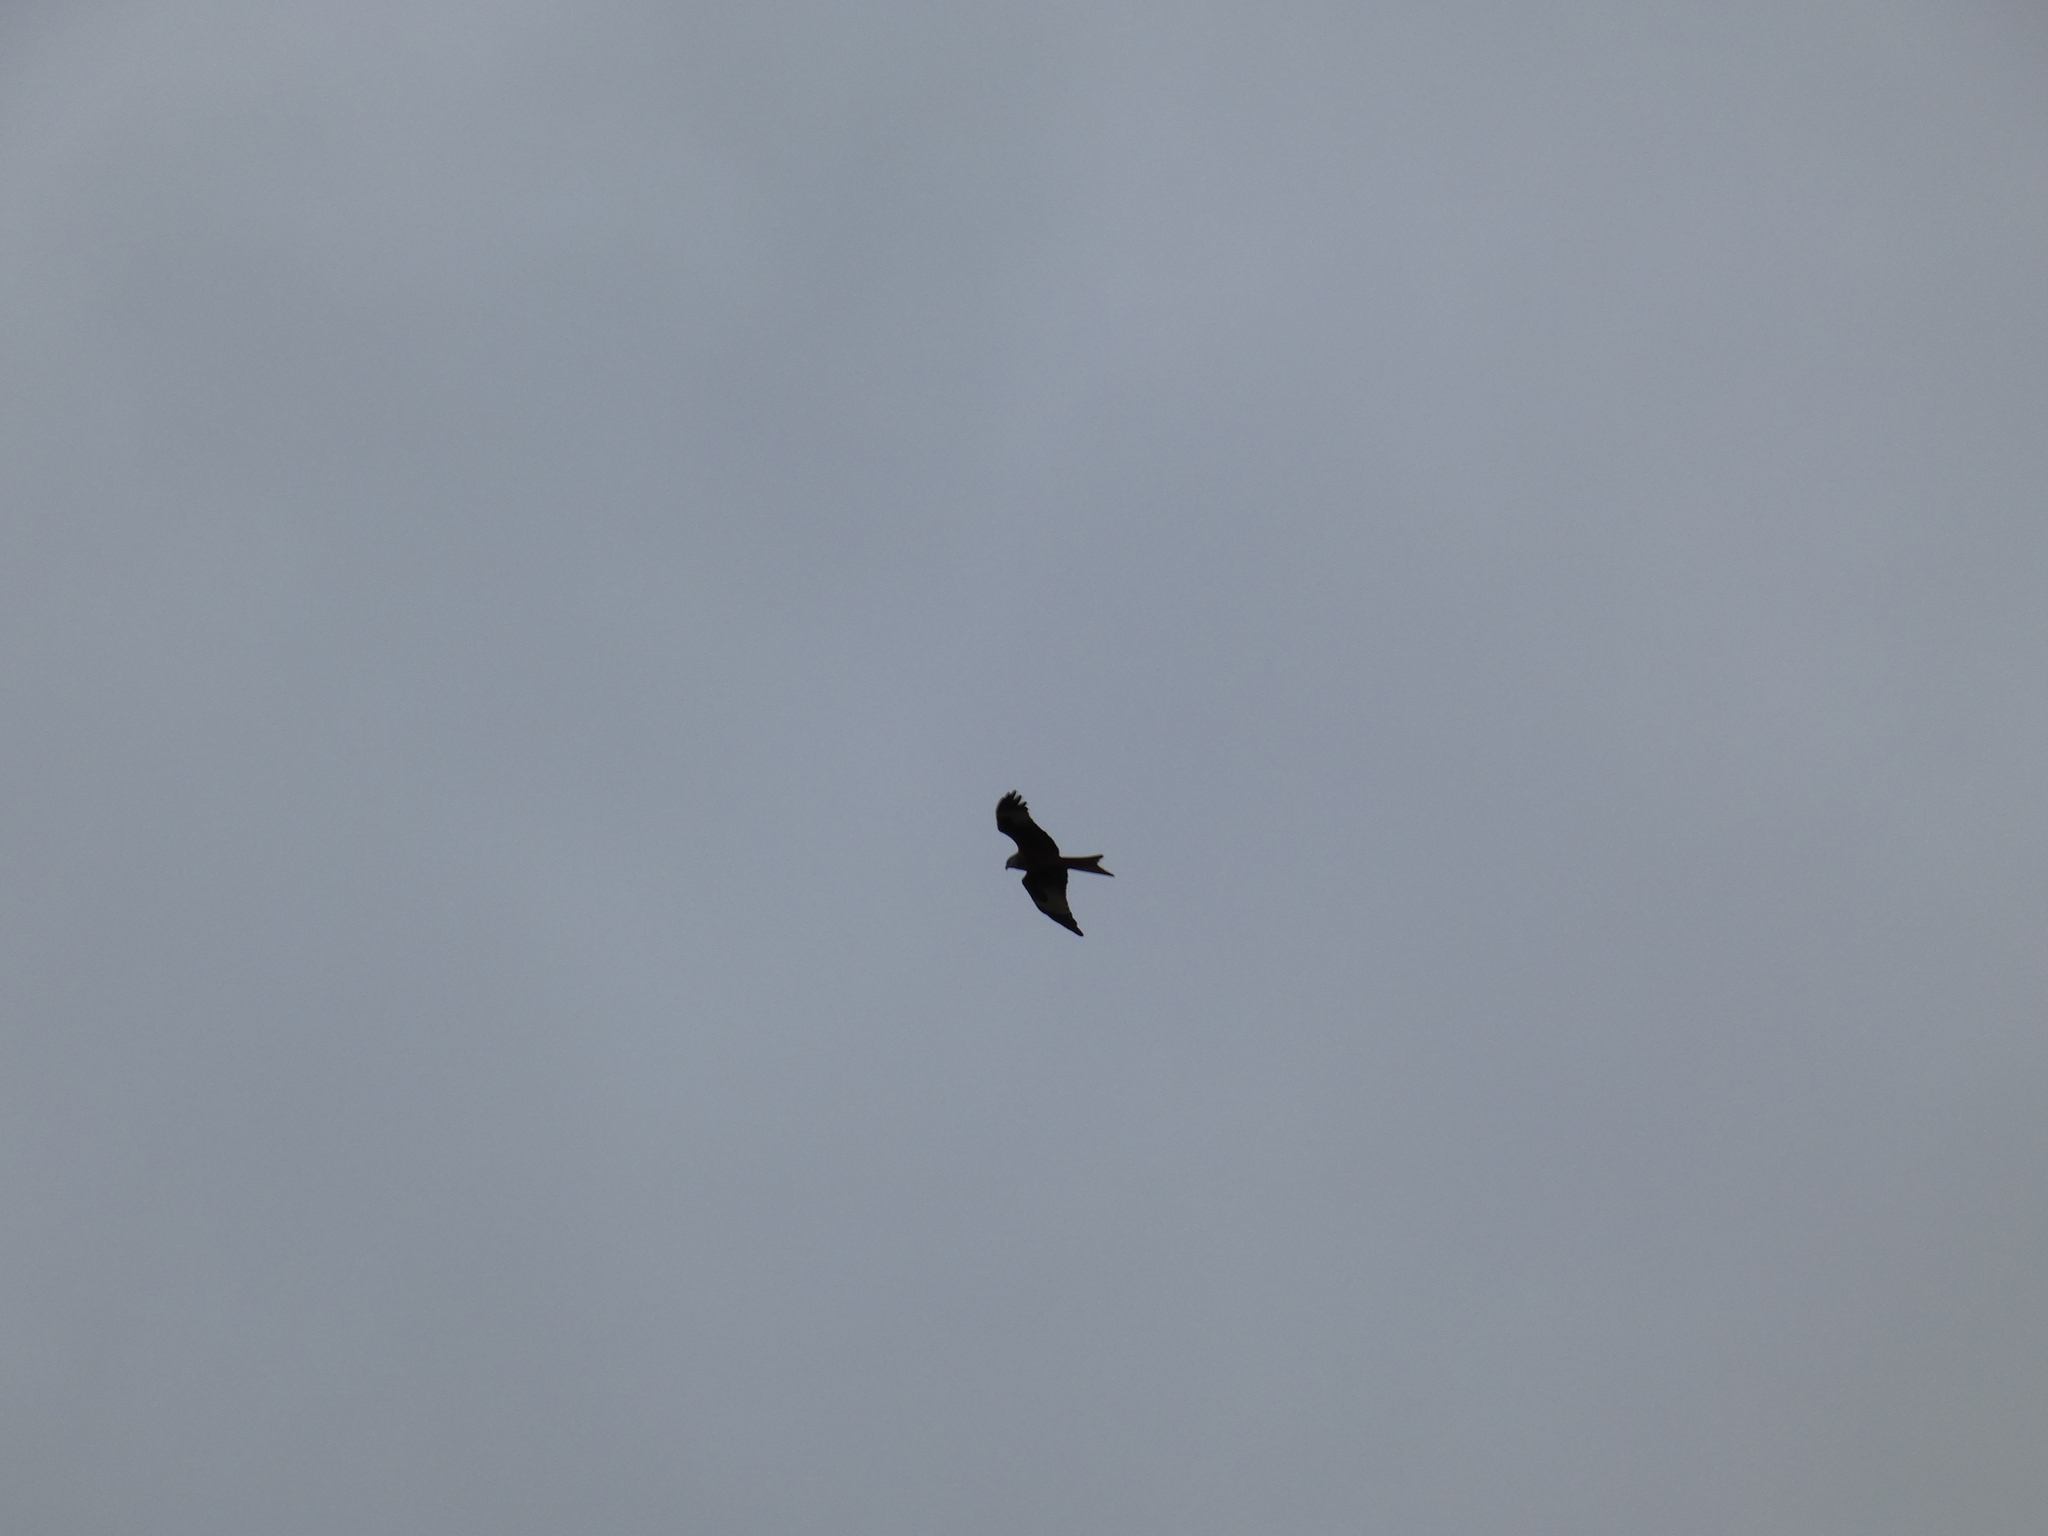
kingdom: Animalia
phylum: Chordata
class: Aves
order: Accipitriformes
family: Accipitridae
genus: Milvus
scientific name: Milvus milvus
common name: Red kite
